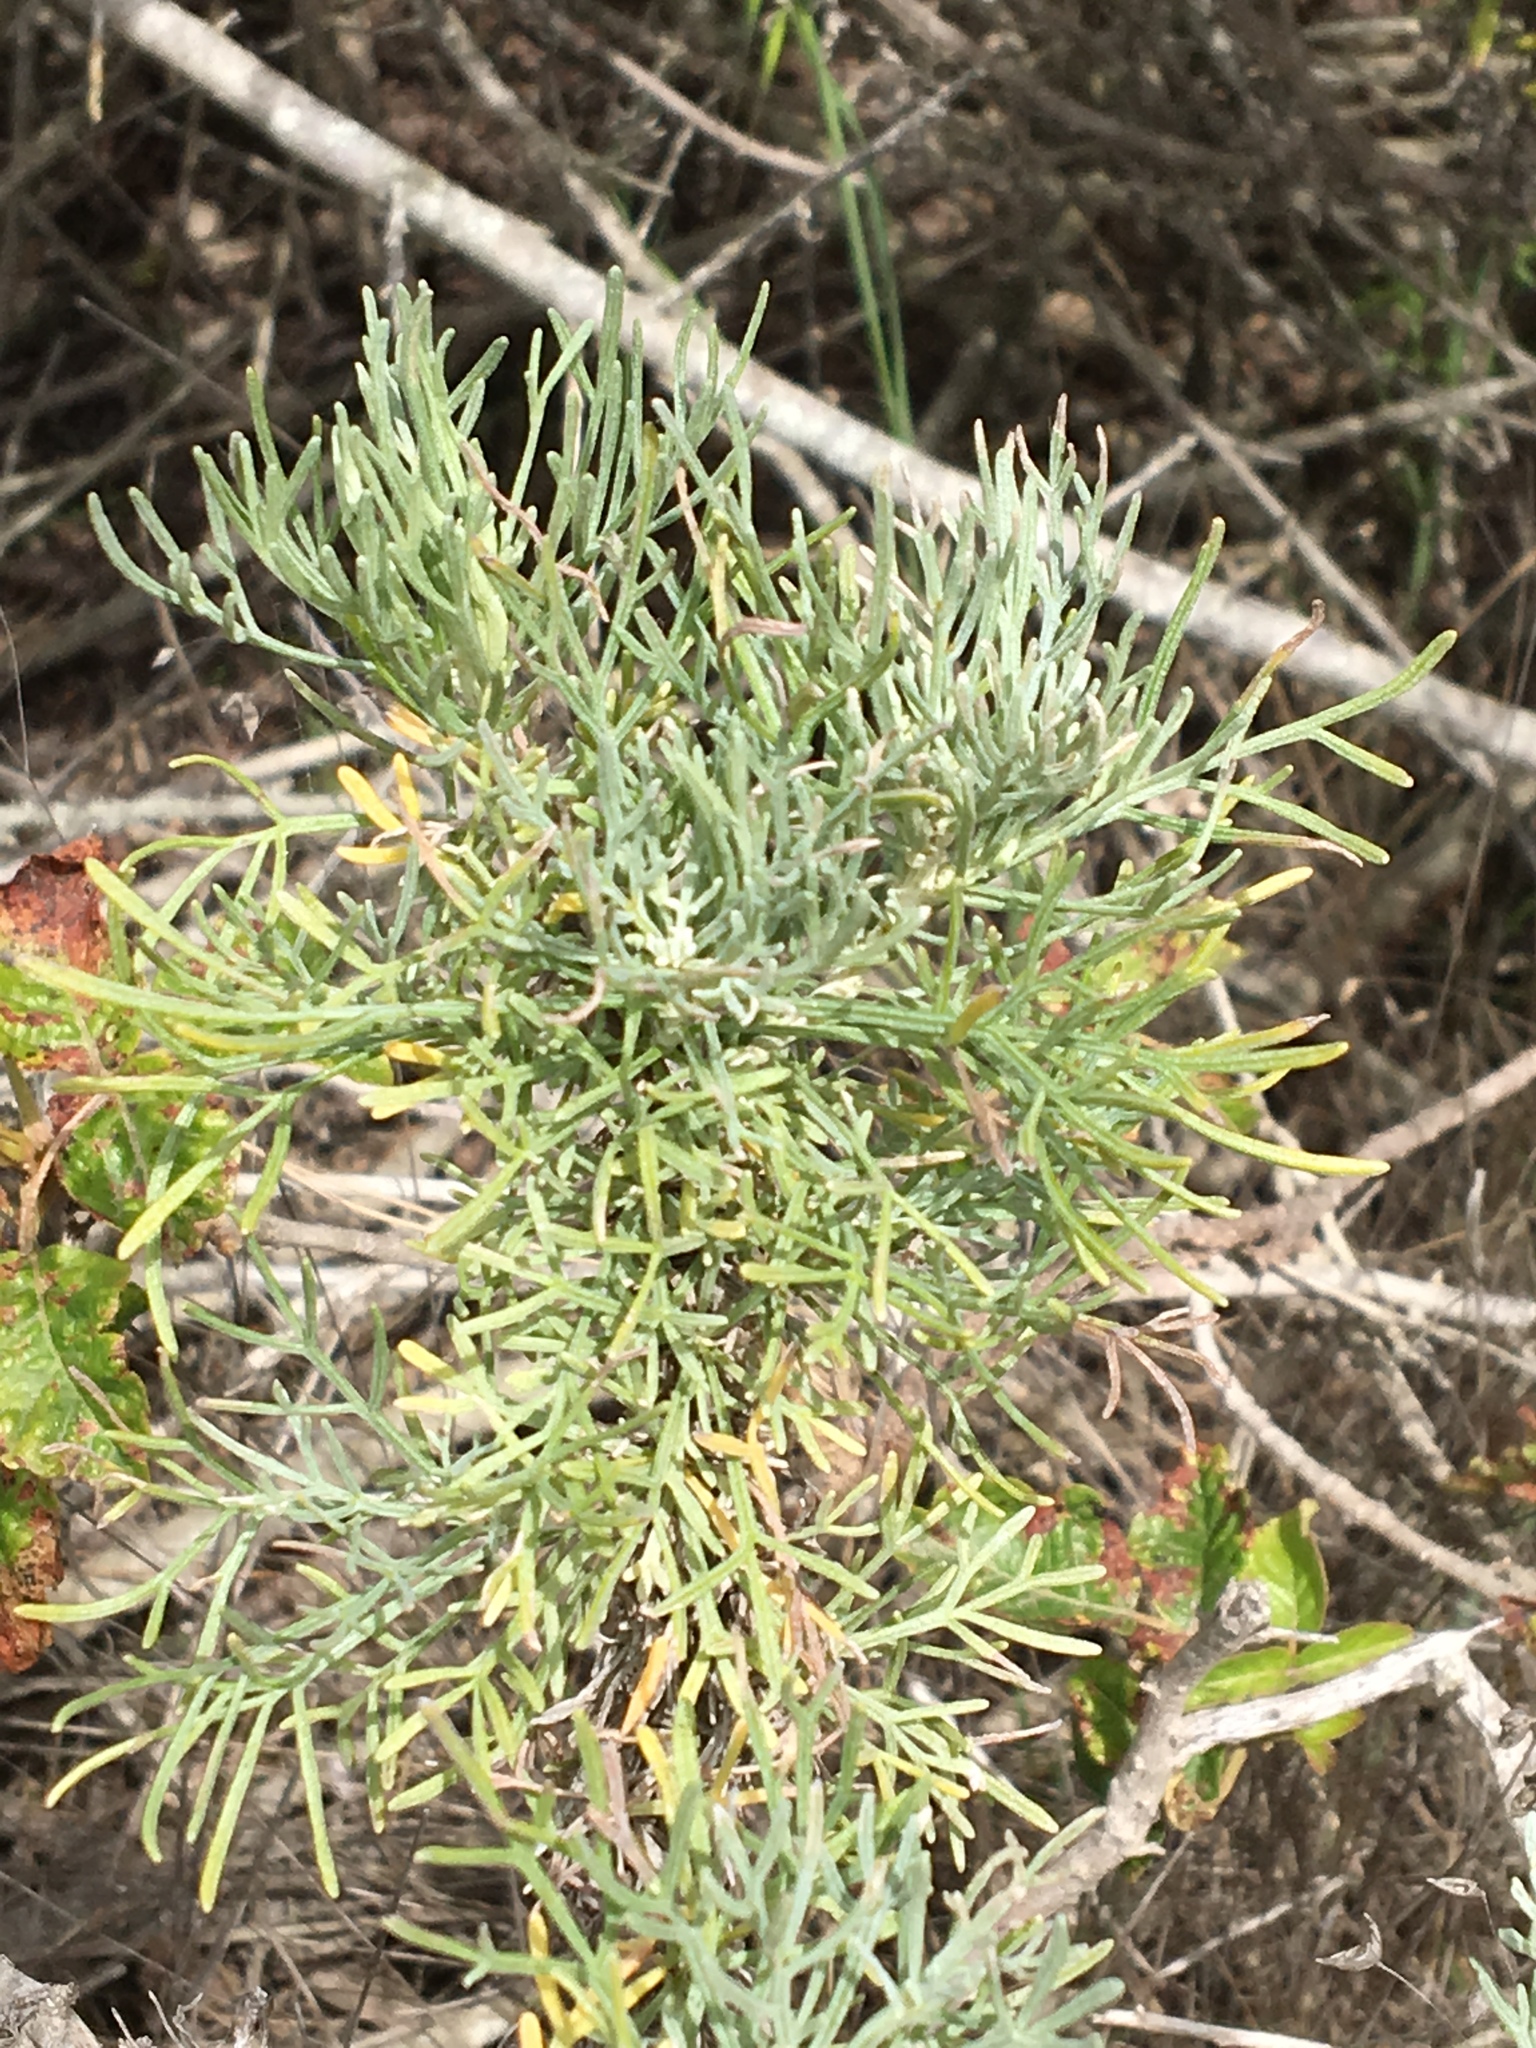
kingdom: Plantae
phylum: Tracheophyta
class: Magnoliopsida
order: Asterales
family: Asteraceae
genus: Artemisia
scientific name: Artemisia californica
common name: California sagebrush
